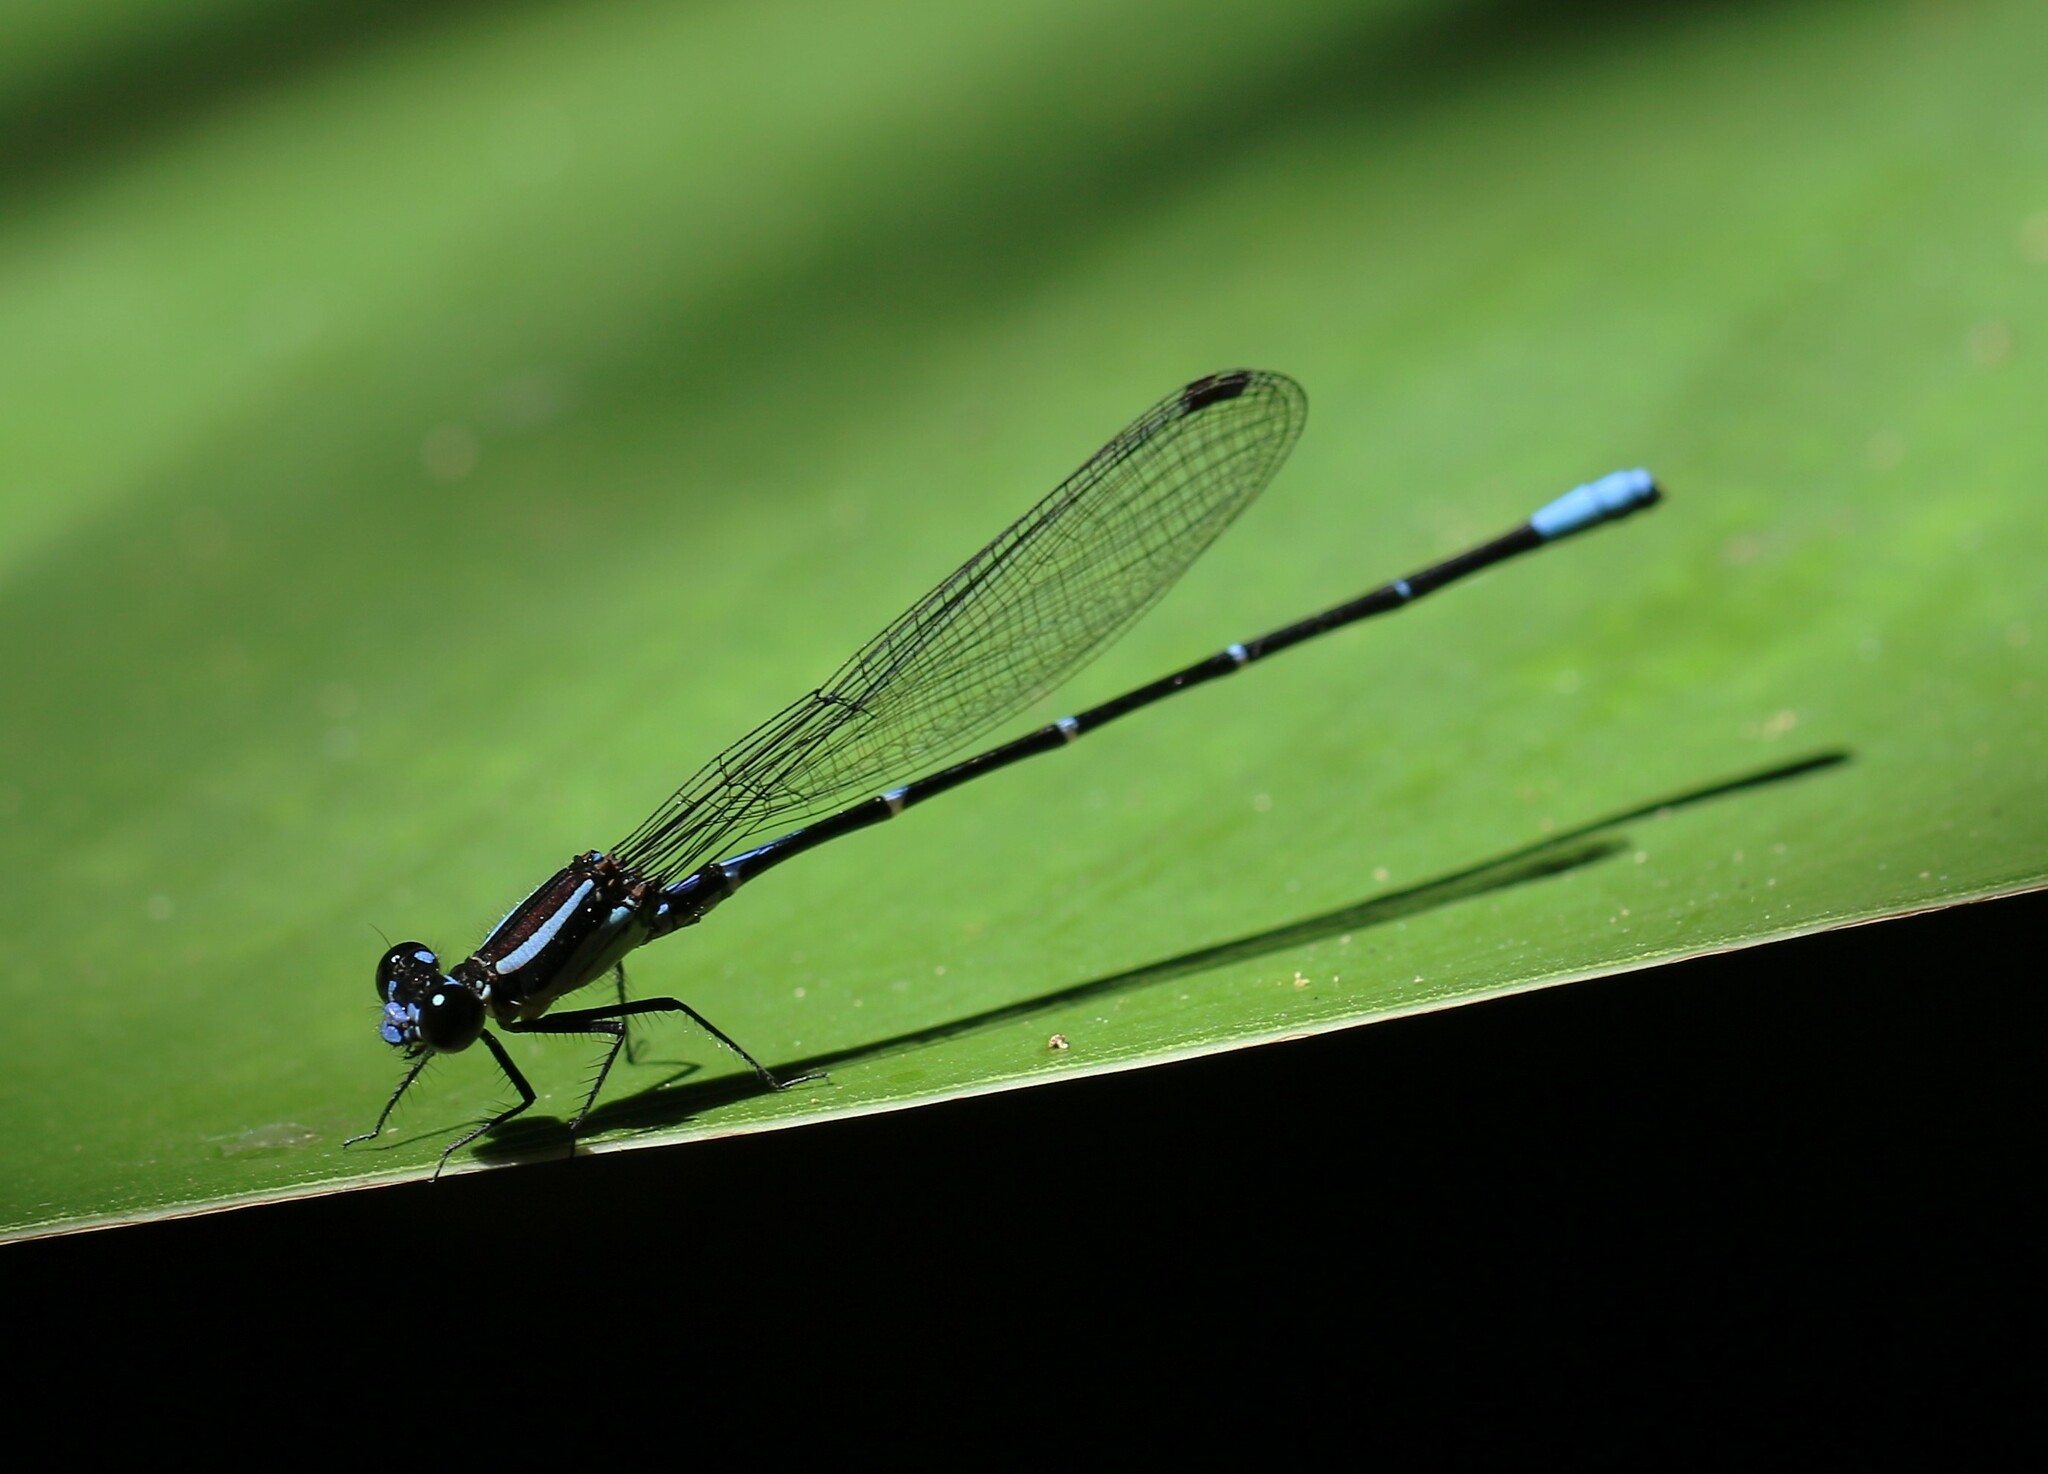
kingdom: Animalia
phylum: Arthropoda
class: Insecta
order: Odonata
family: Coenagrionidae
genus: Argia
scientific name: Argia oculata
